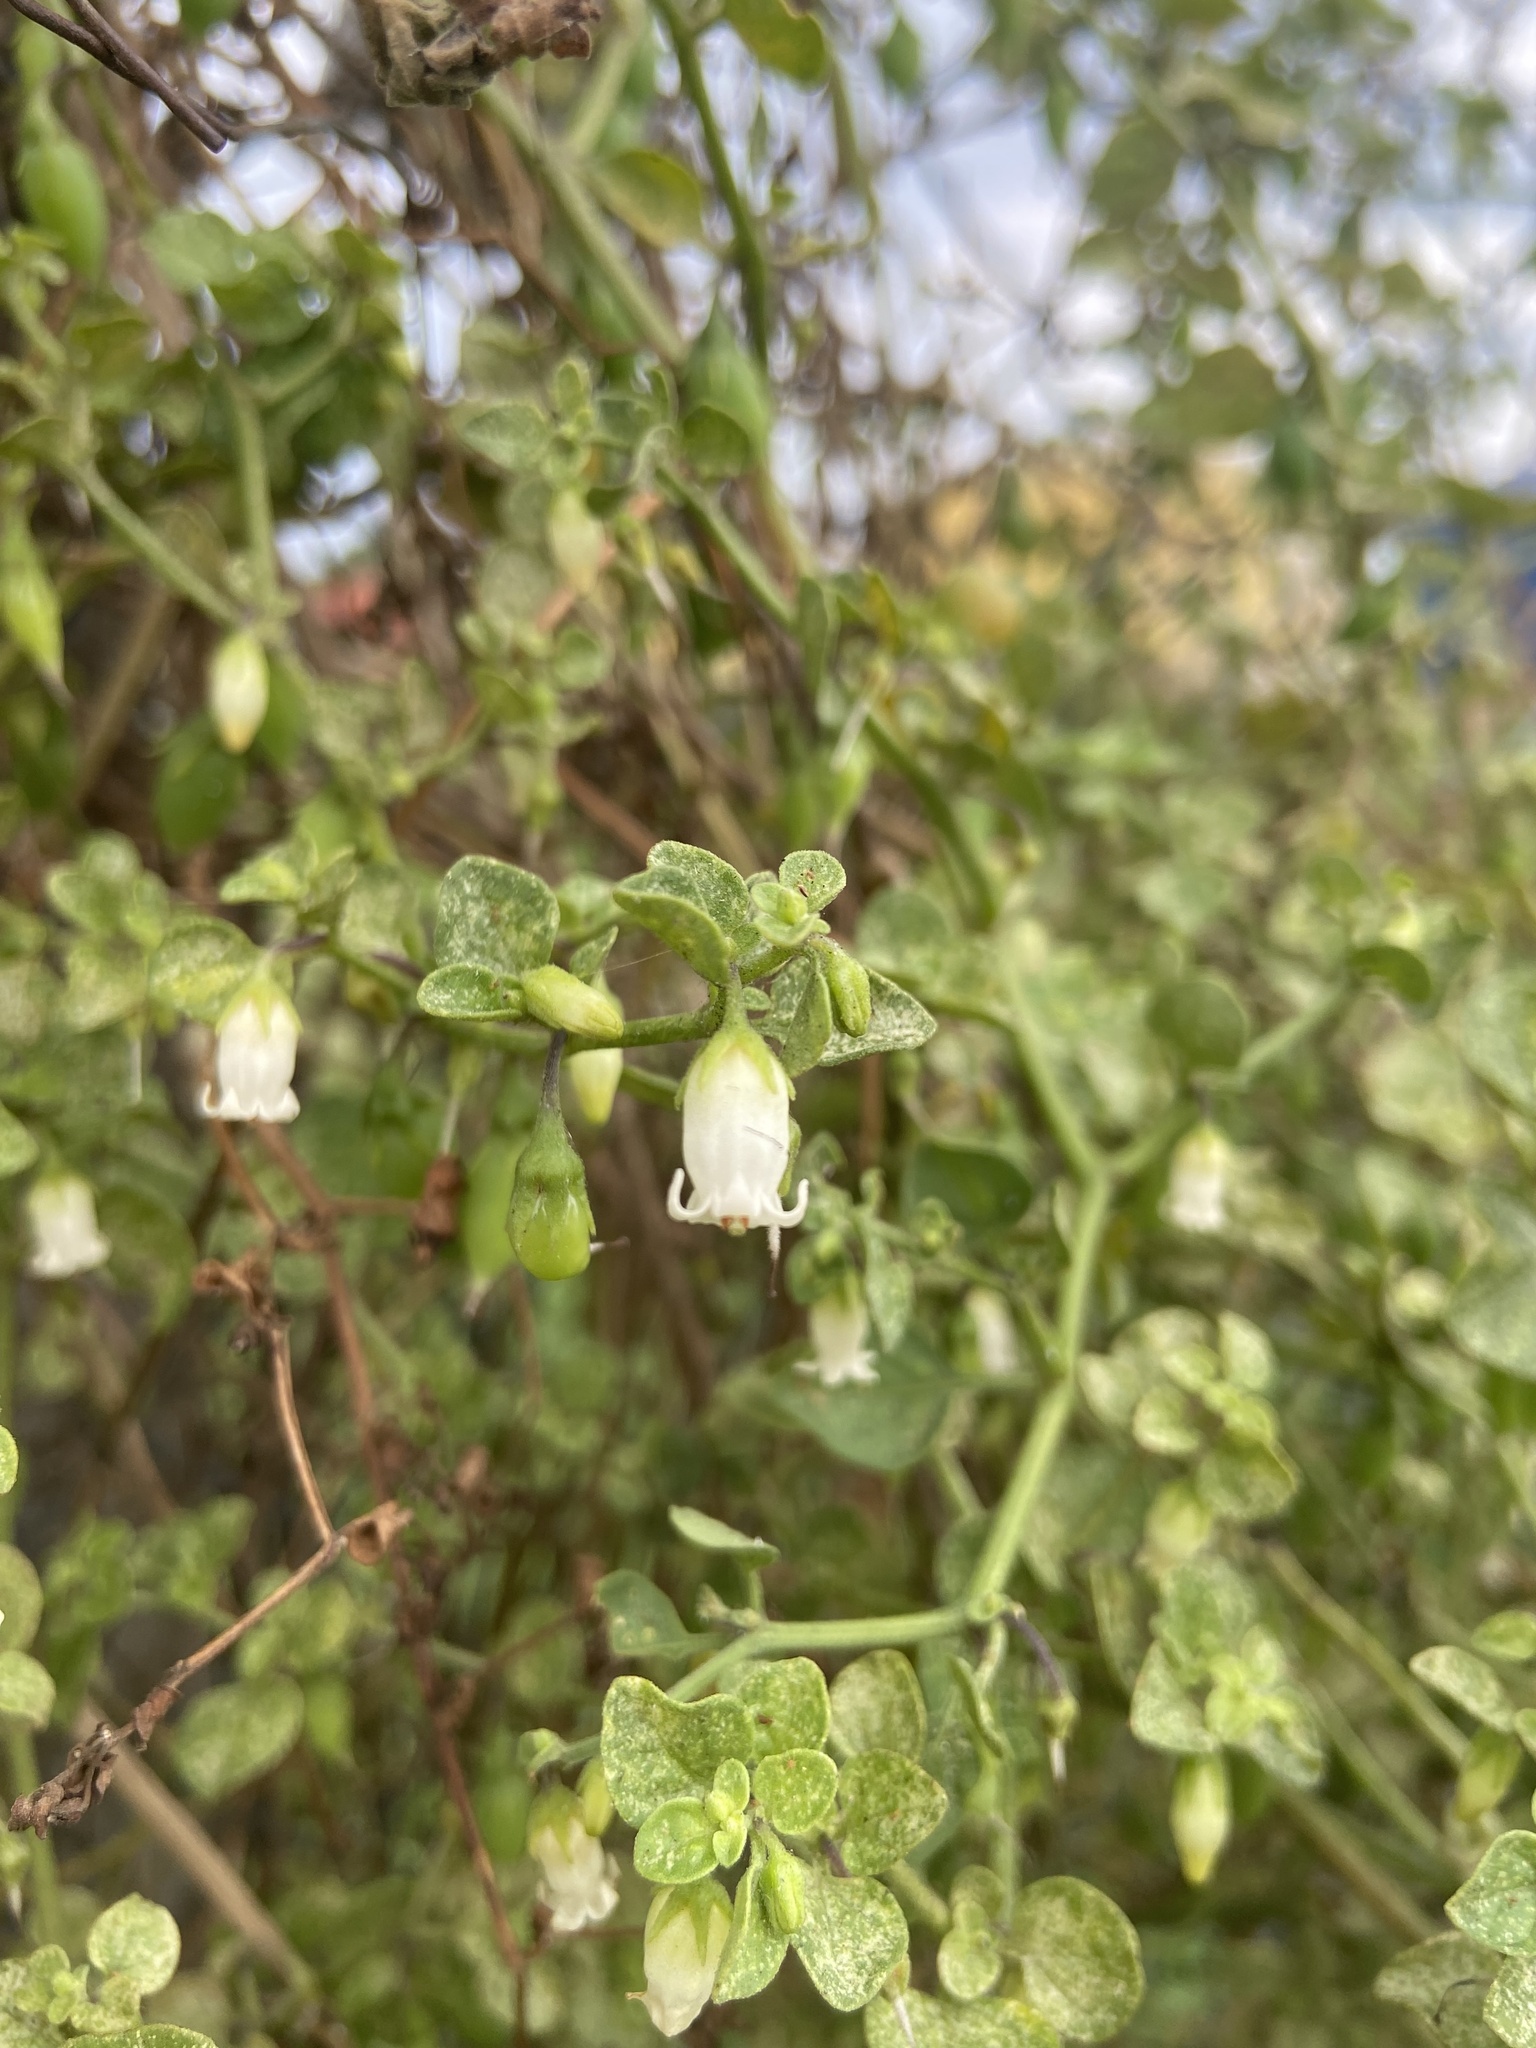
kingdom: Plantae
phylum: Tracheophyta
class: Magnoliopsida
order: Solanales
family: Solanaceae
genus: Salpichroa
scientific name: Salpichroa origanifolia
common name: Lily-of-the-valley-vine
